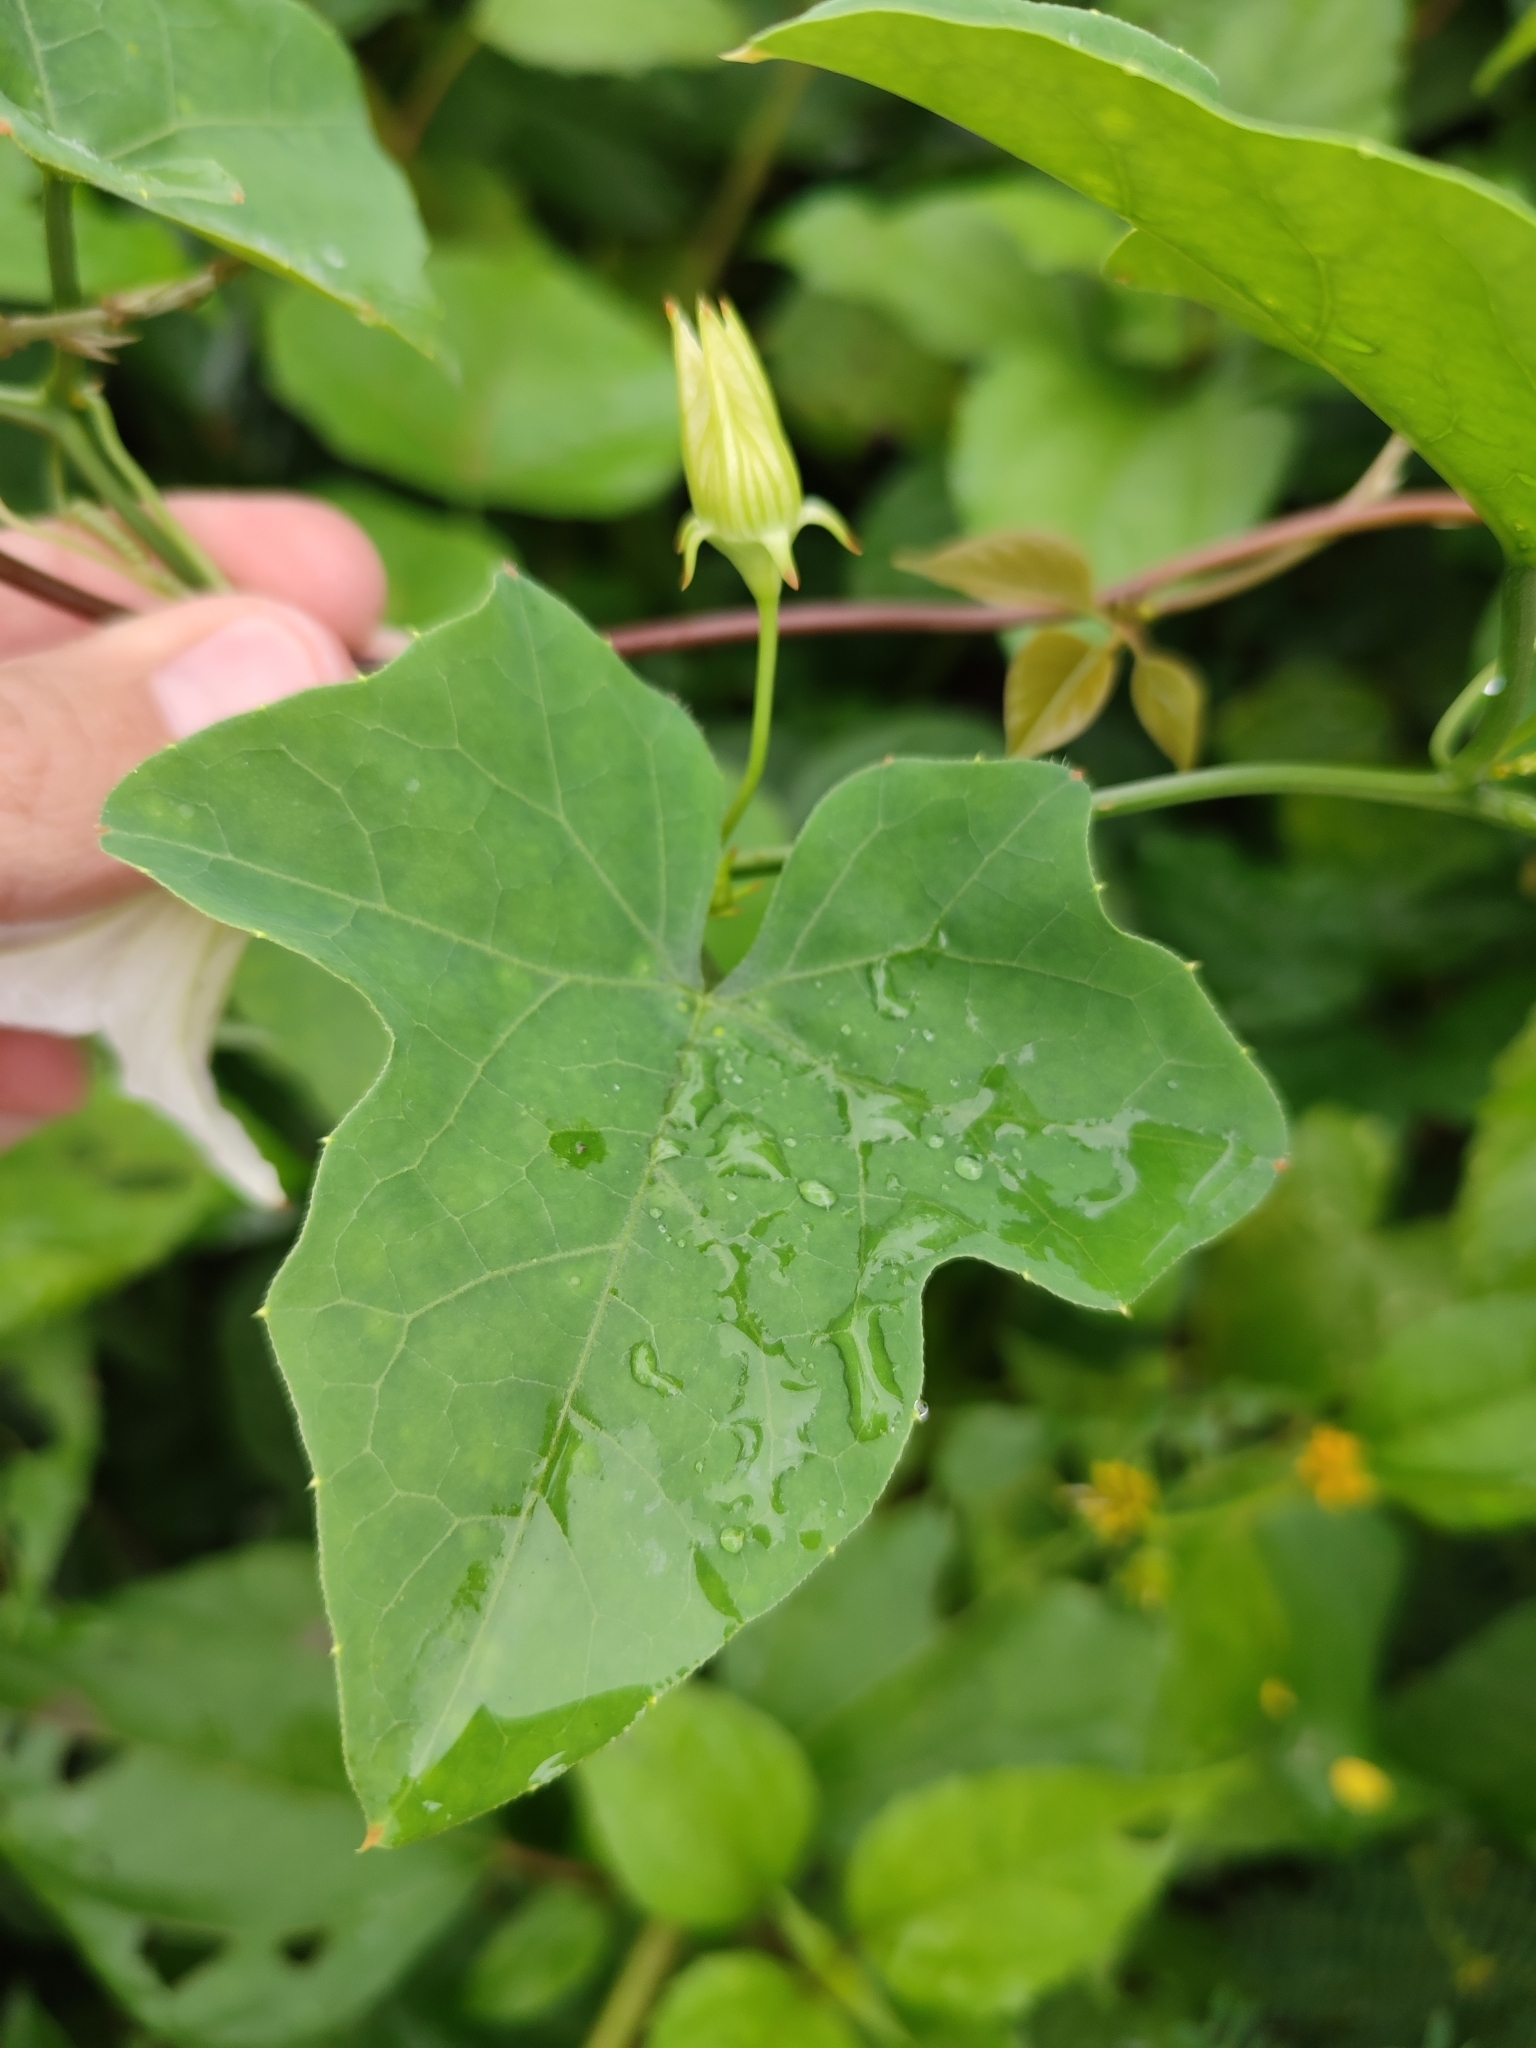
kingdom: Plantae
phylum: Tracheophyta
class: Magnoliopsida
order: Cucurbitales
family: Cucurbitaceae
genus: Coccinia
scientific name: Coccinia grandis
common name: Ivy gourd
